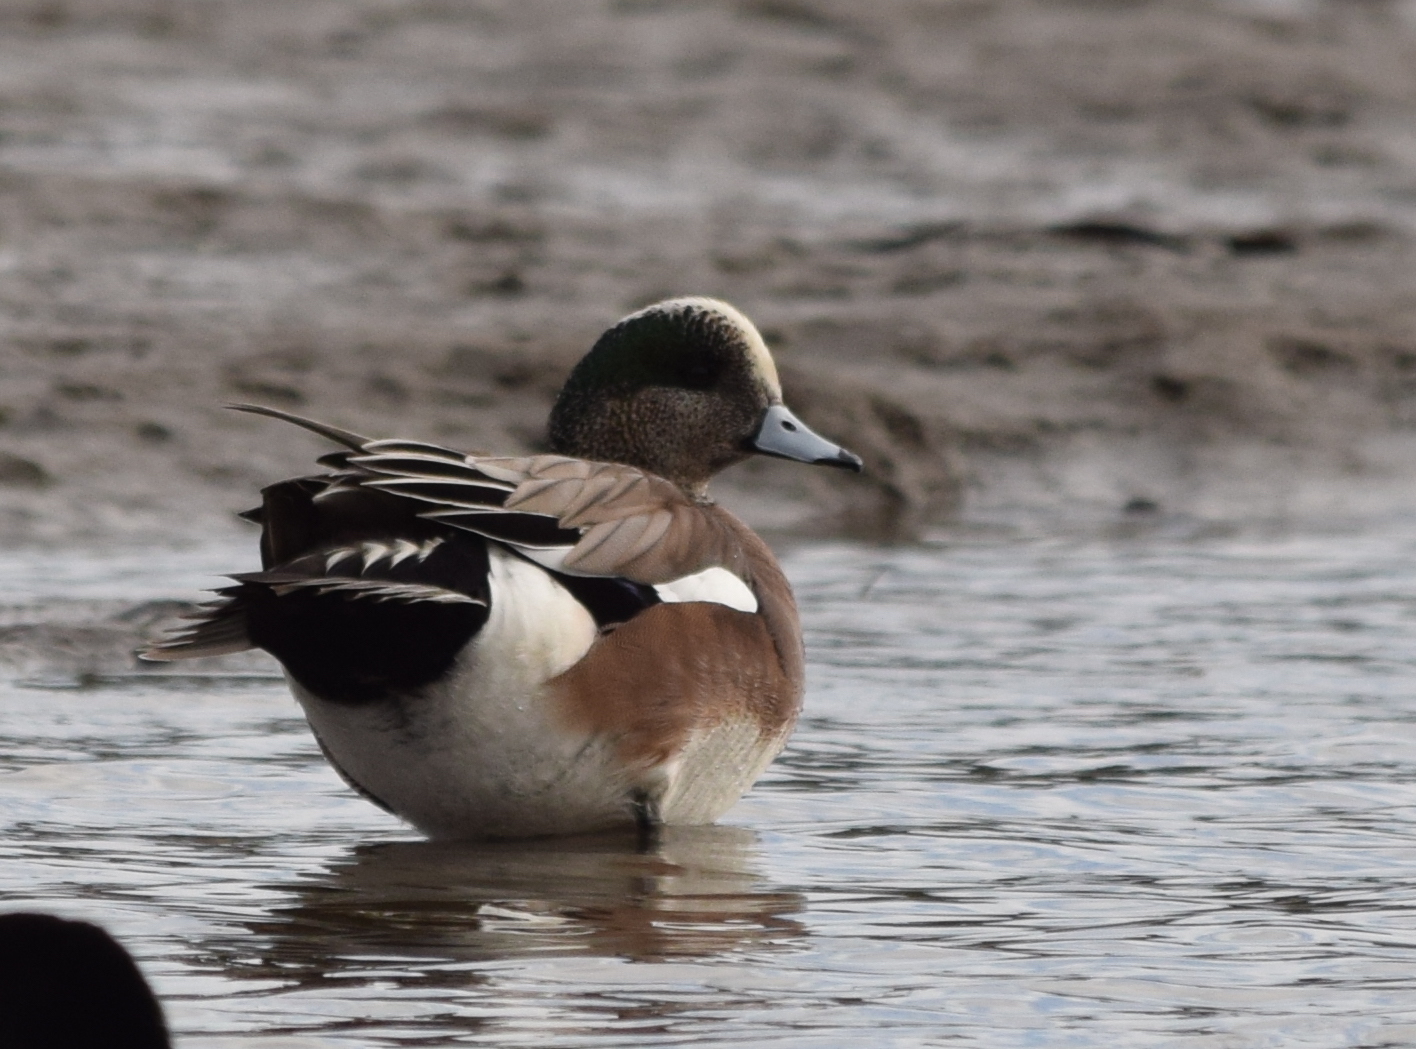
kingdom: Animalia
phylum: Chordata
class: Aves
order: Anseriformes
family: Anatidae
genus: Mareca
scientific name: Mareca americana
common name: American wigeon
